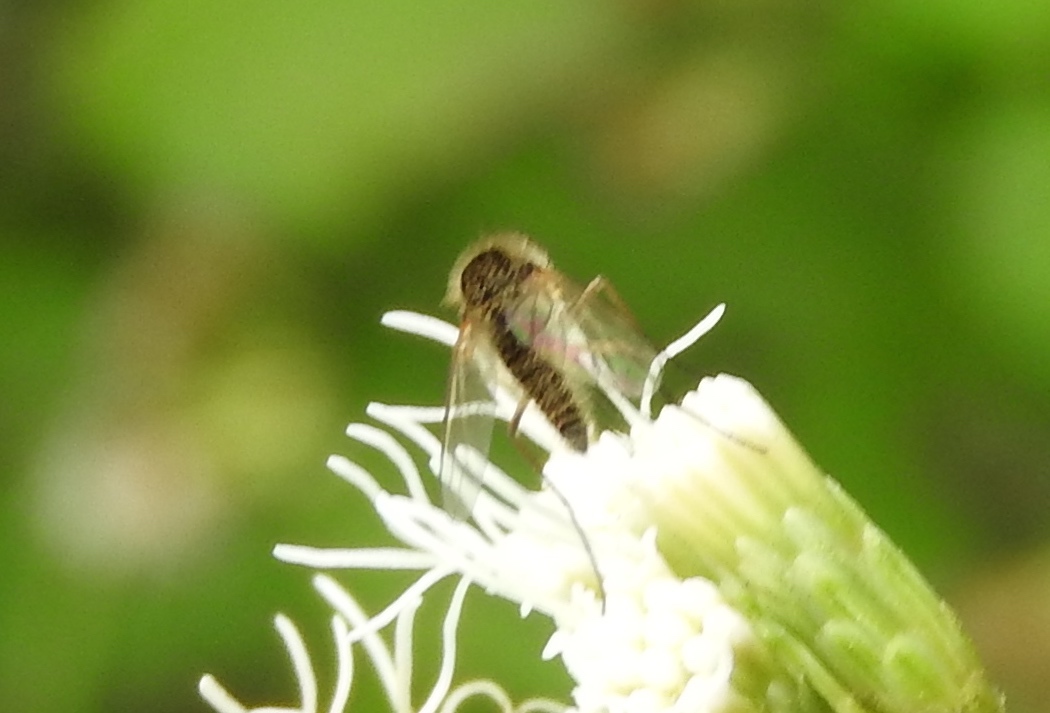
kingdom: Animalia
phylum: Arthropoda
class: Insecta
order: Diptera
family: Bombyliidae
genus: Geron
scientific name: Geron
